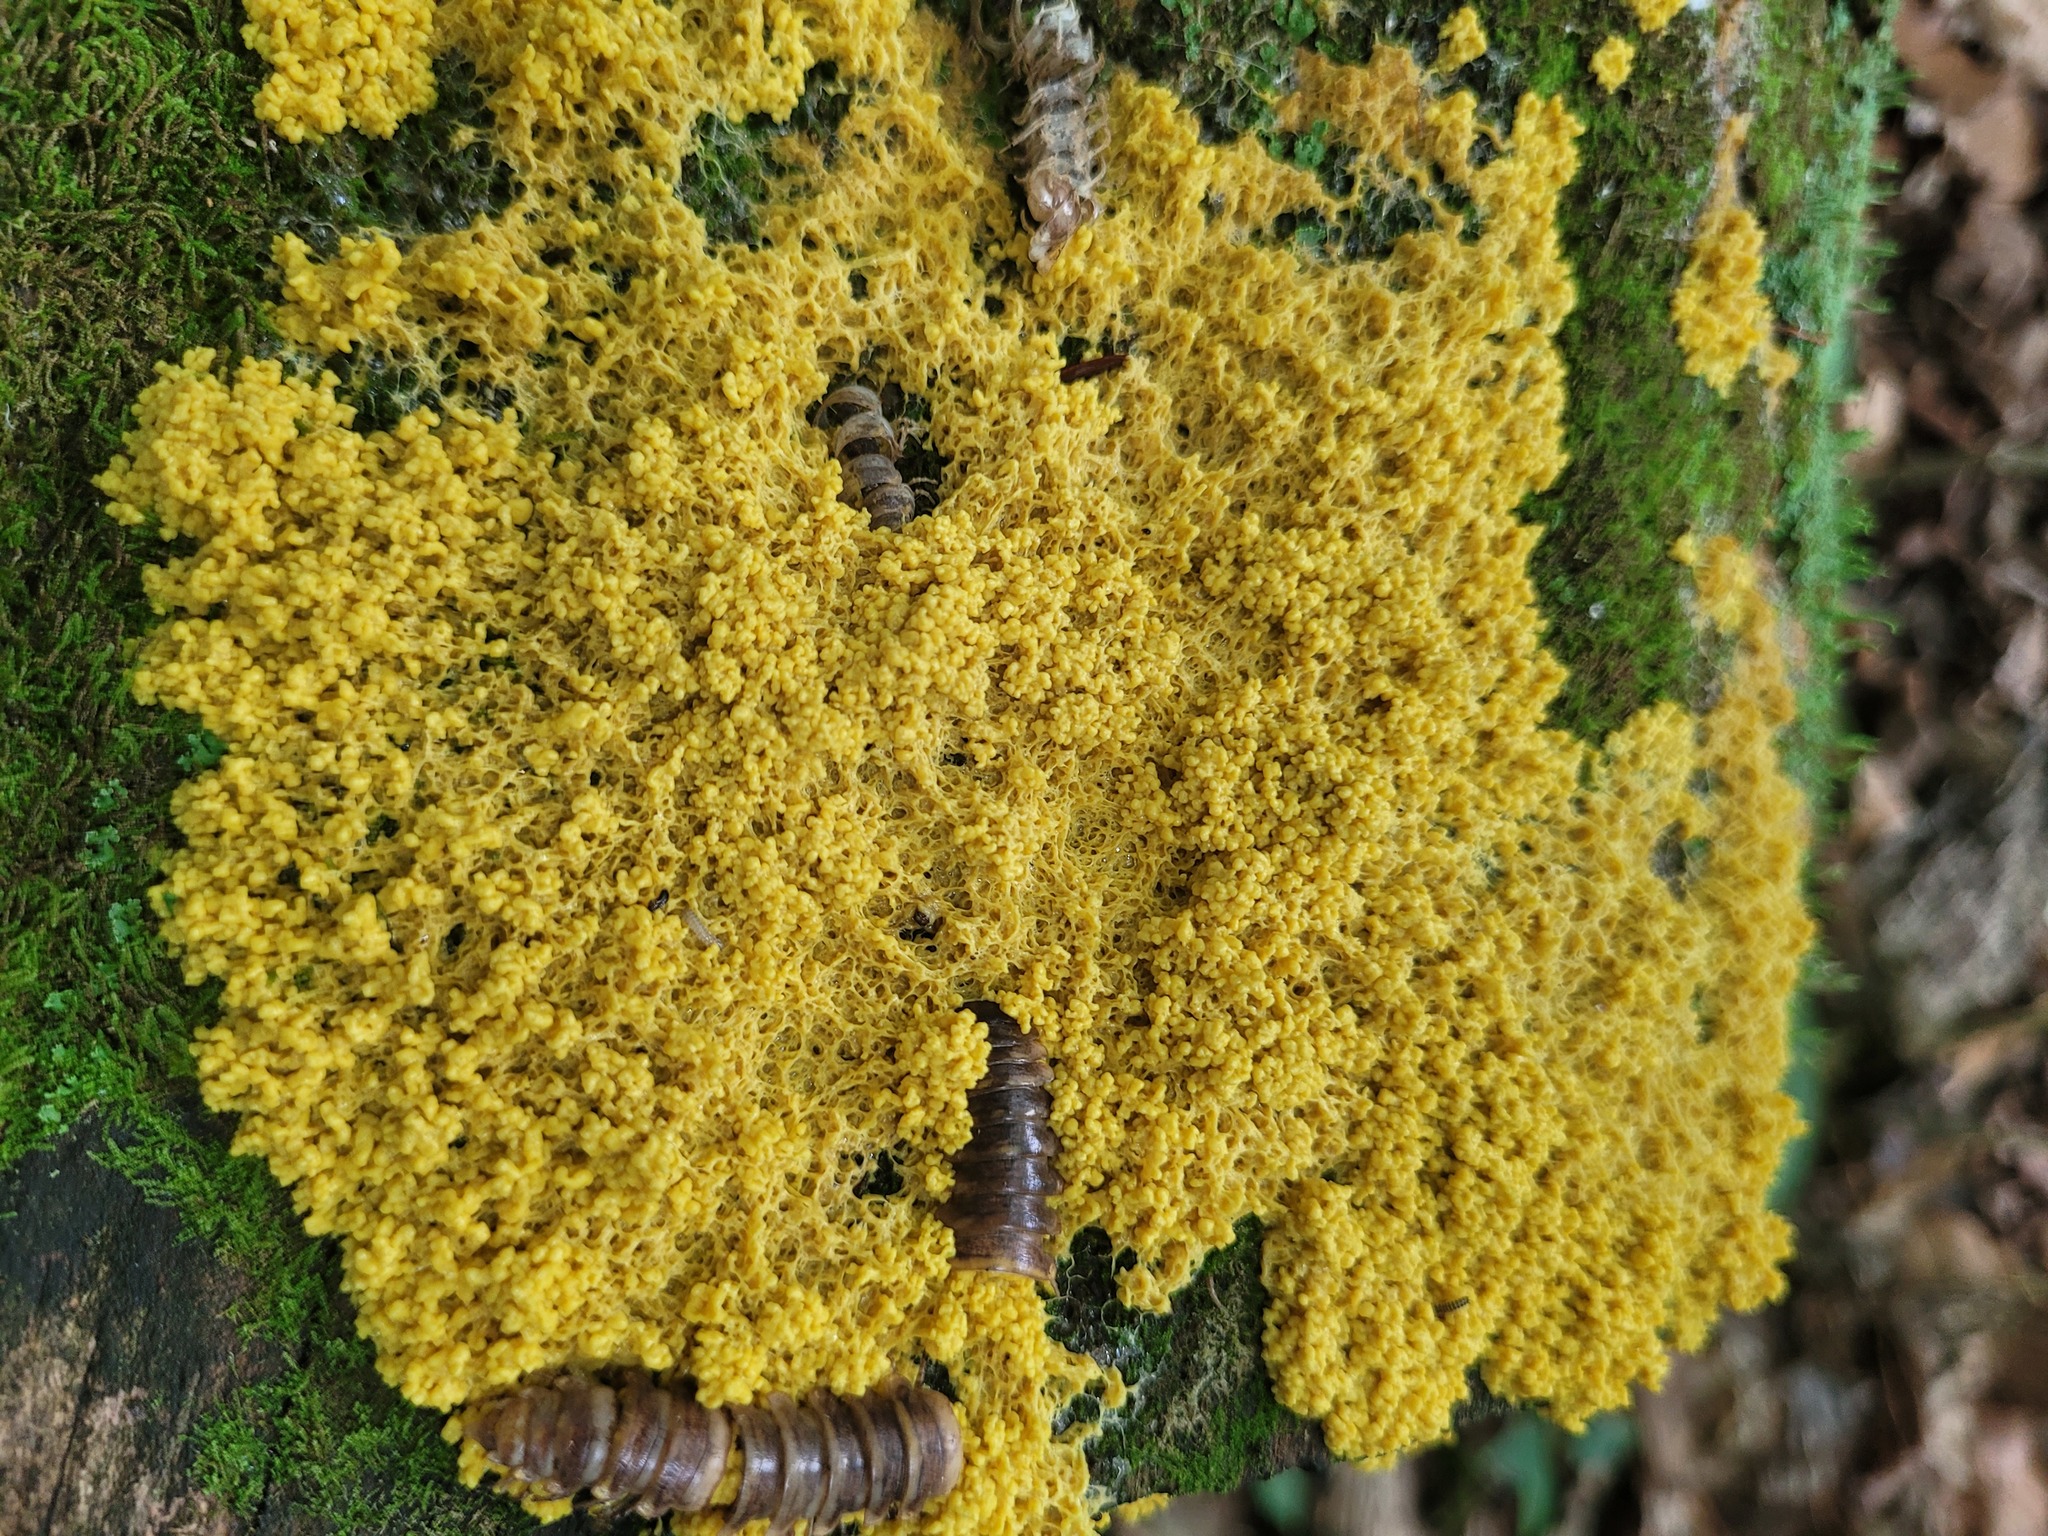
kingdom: Protozoa
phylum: Mycetozoa
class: Myxomycetes
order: Physarales
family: Physaraceae
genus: Fuligo
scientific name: Fuligo septica
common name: Dog vomit slime mold
